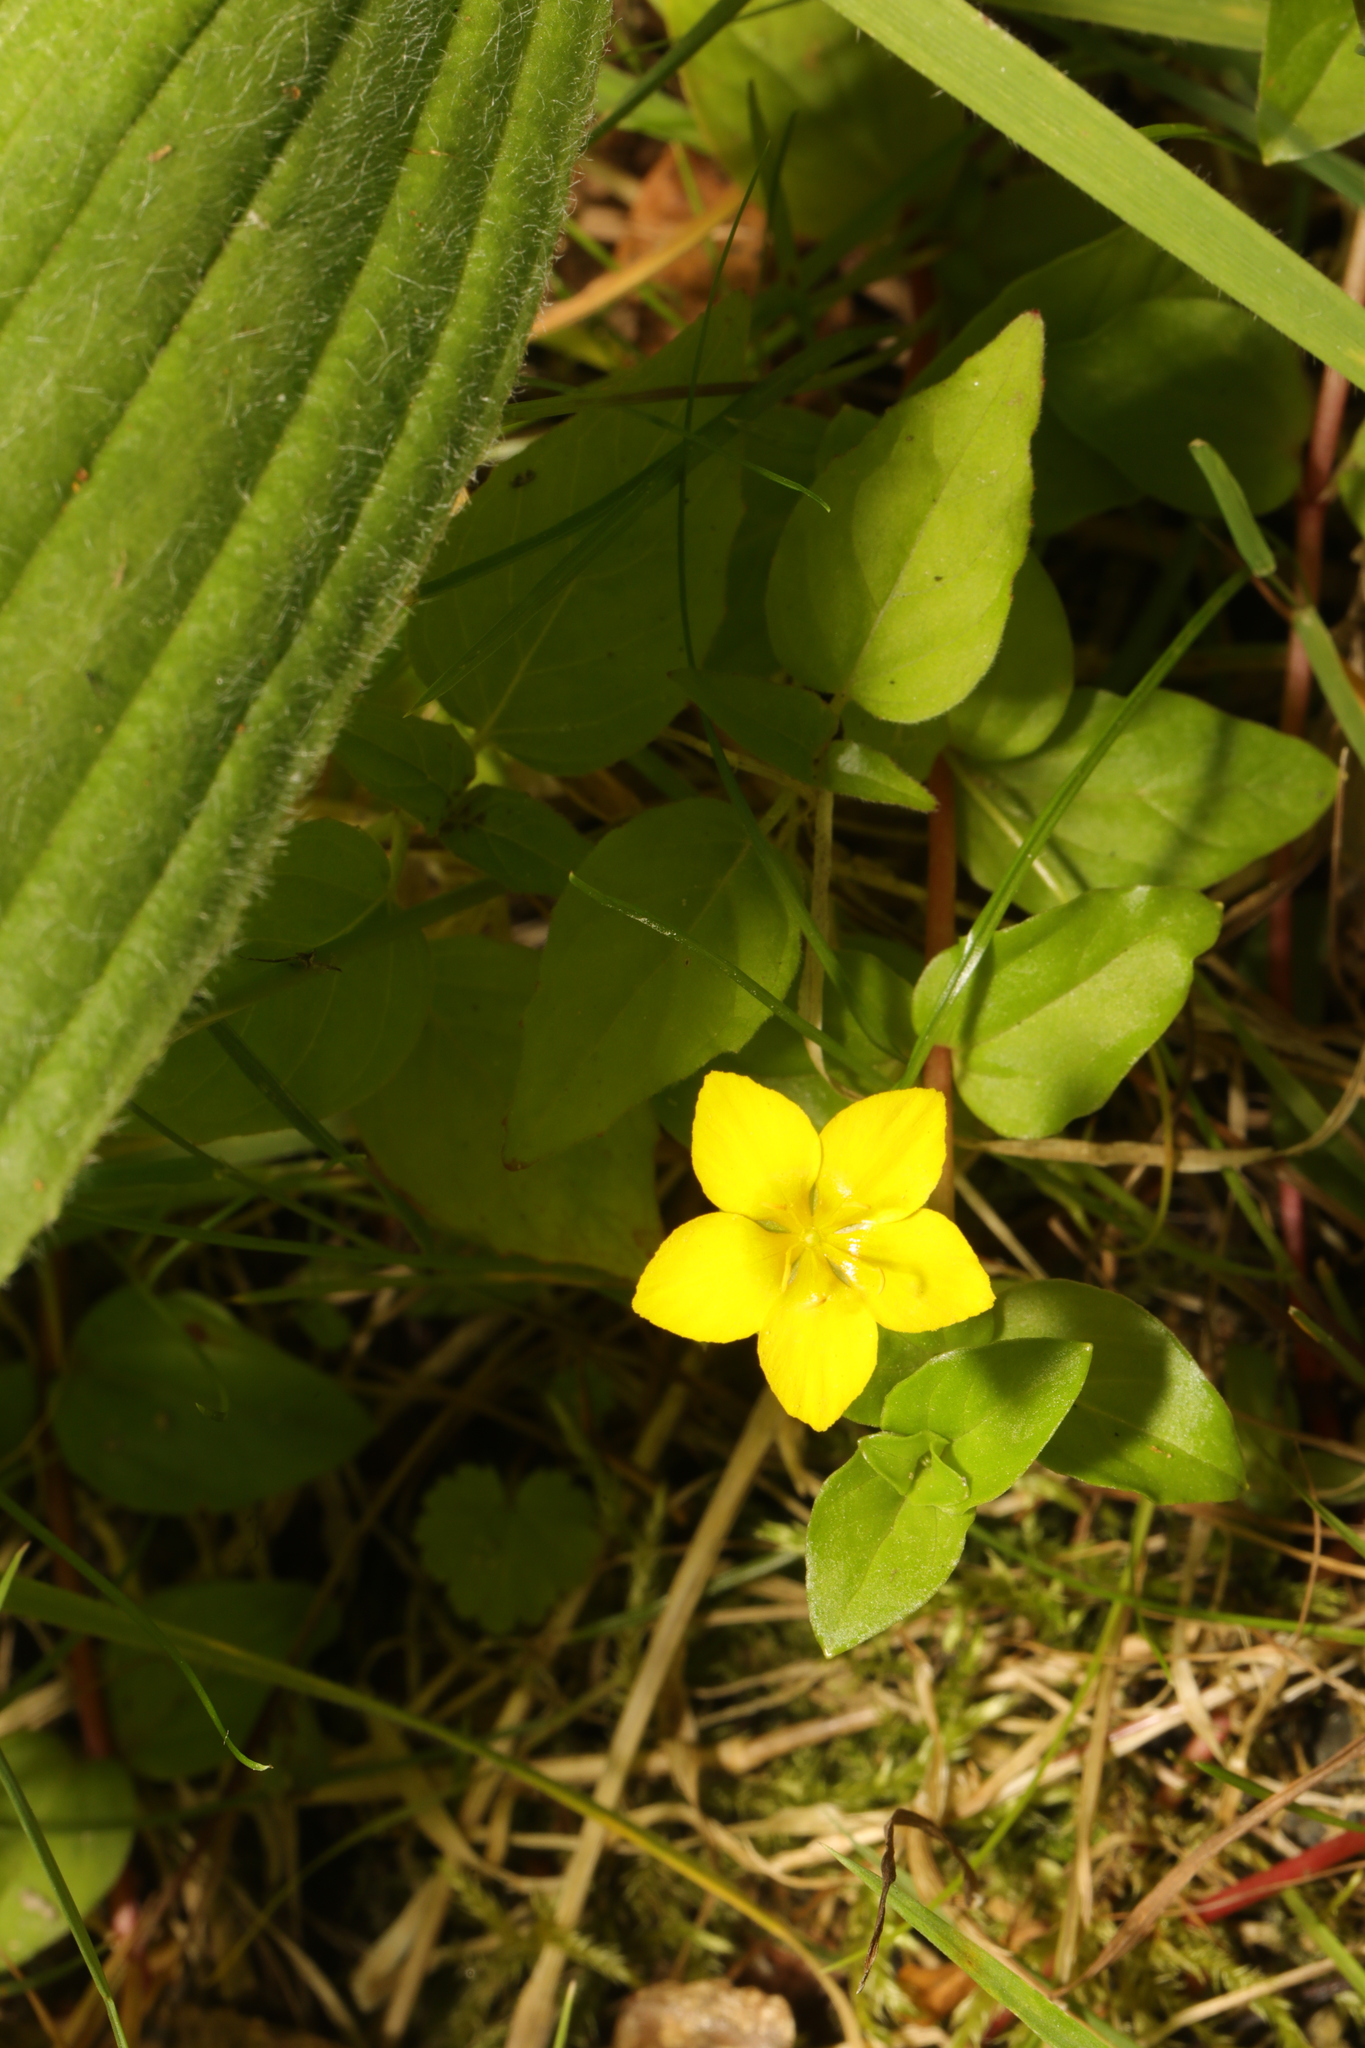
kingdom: Plantae
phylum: Tracheophyta
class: Magnoliopsida
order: Ericales
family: Primulaceae
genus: Lysimachia
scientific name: Lysimachia nemorum
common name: Yellow pimpernel
